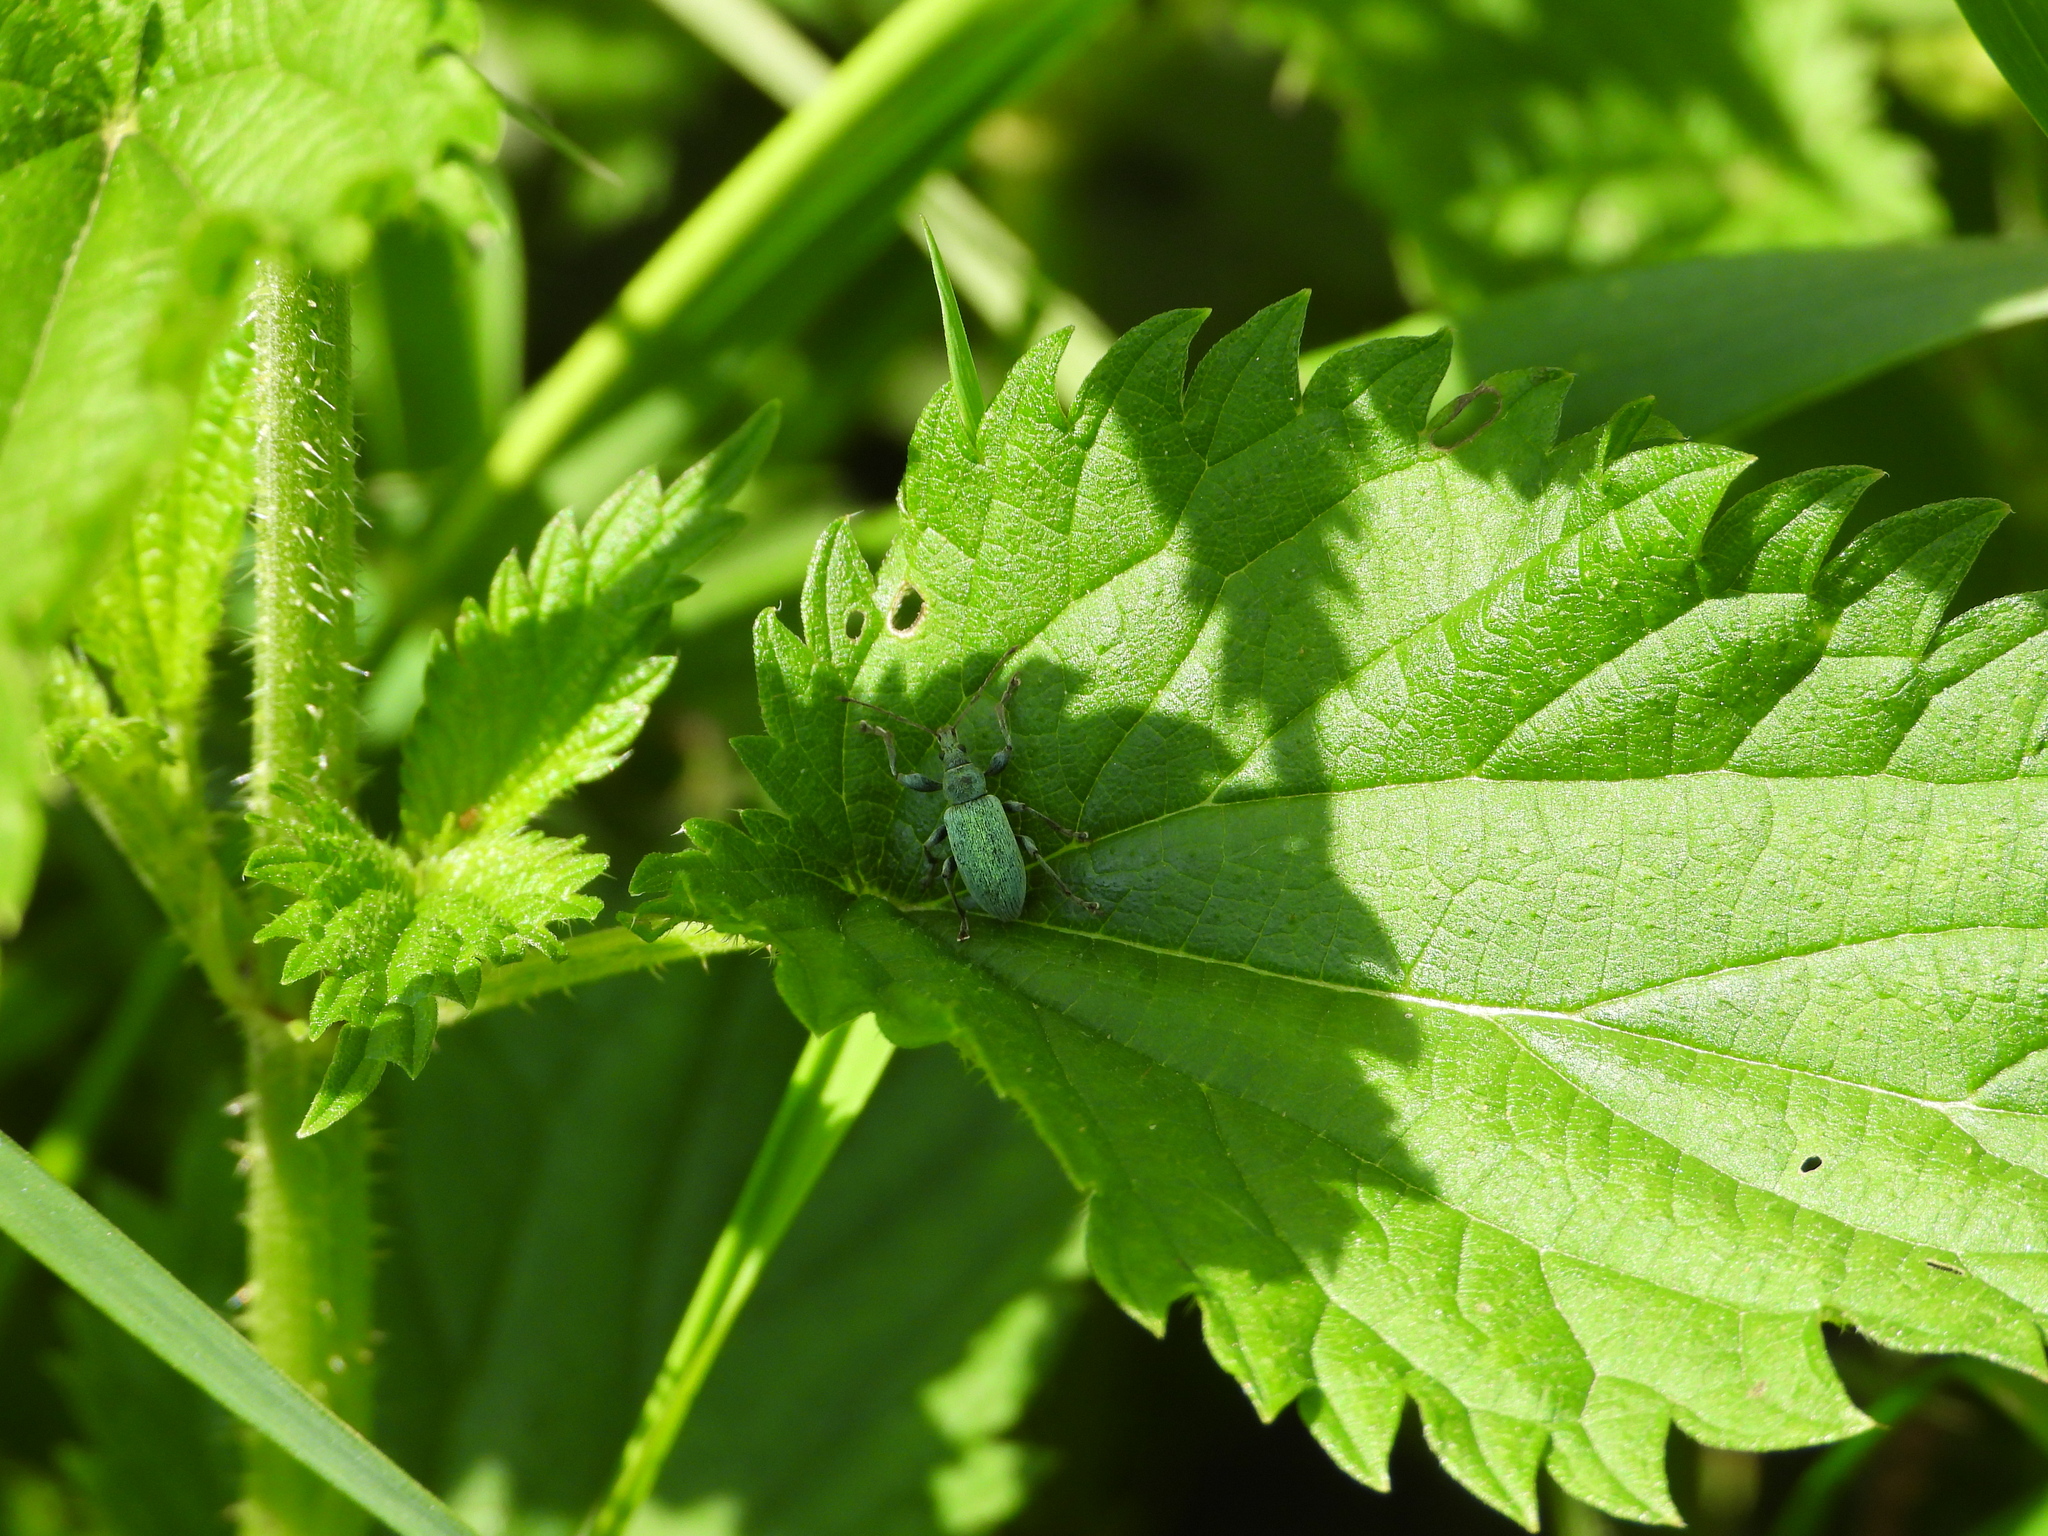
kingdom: Animalia
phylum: Arthropoda
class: Insecta
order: Coleoptera
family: Curculionidae
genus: Phyllobius
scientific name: Phyllobius pomaceus
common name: Green nettle weevil
